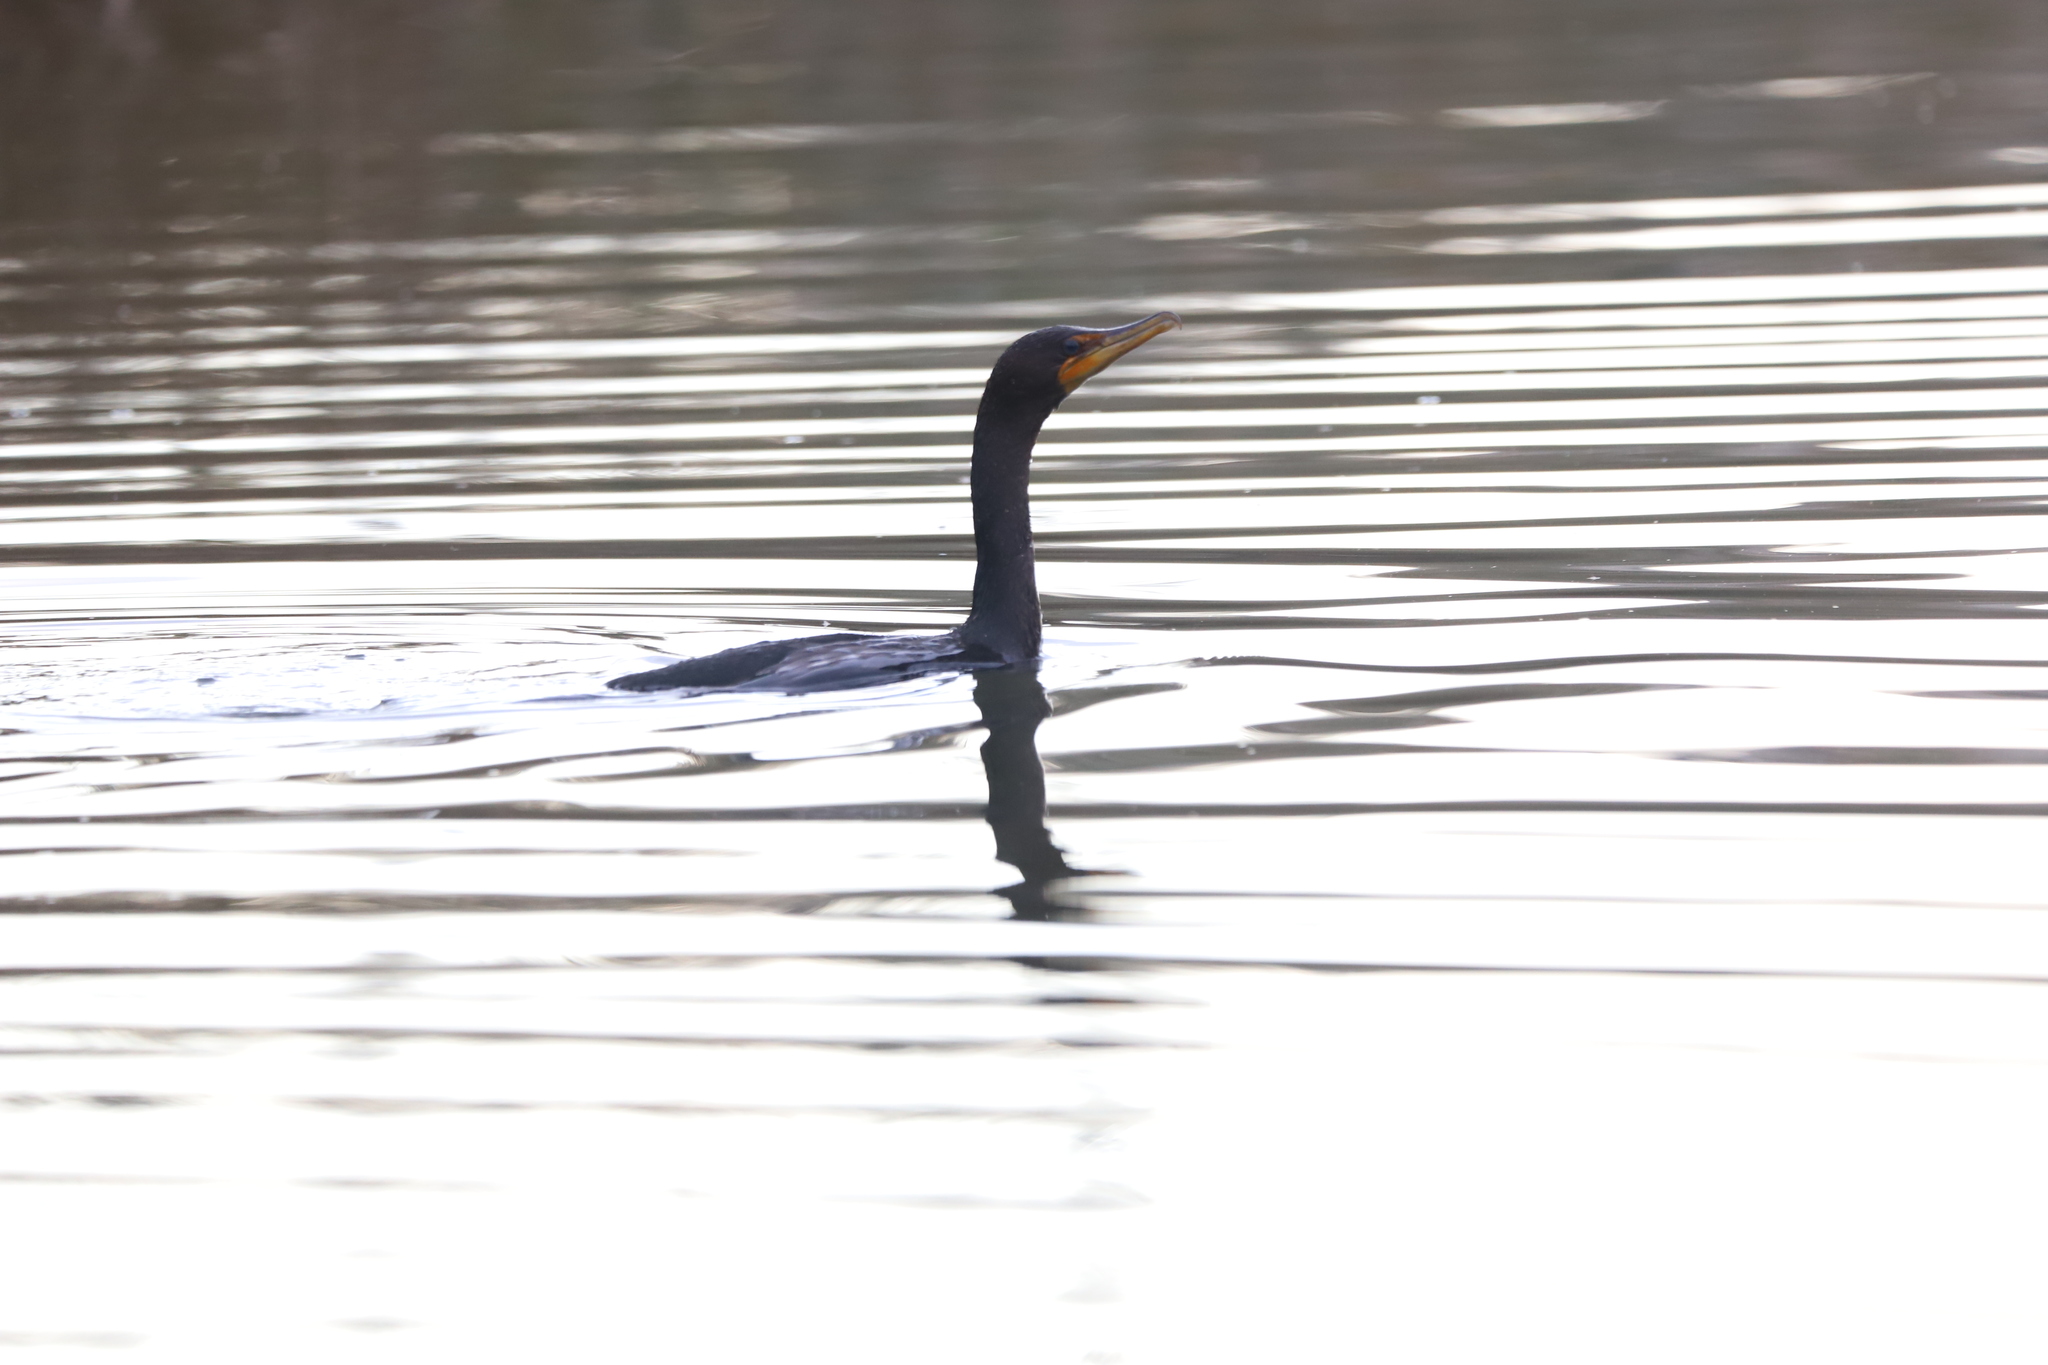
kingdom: Animalia
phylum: Chordata
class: Aves
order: Suliformes
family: Phalacrocoracidae
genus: Phalacrocorax
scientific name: Phalacrocorax auritus
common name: Double-crested cormorant
